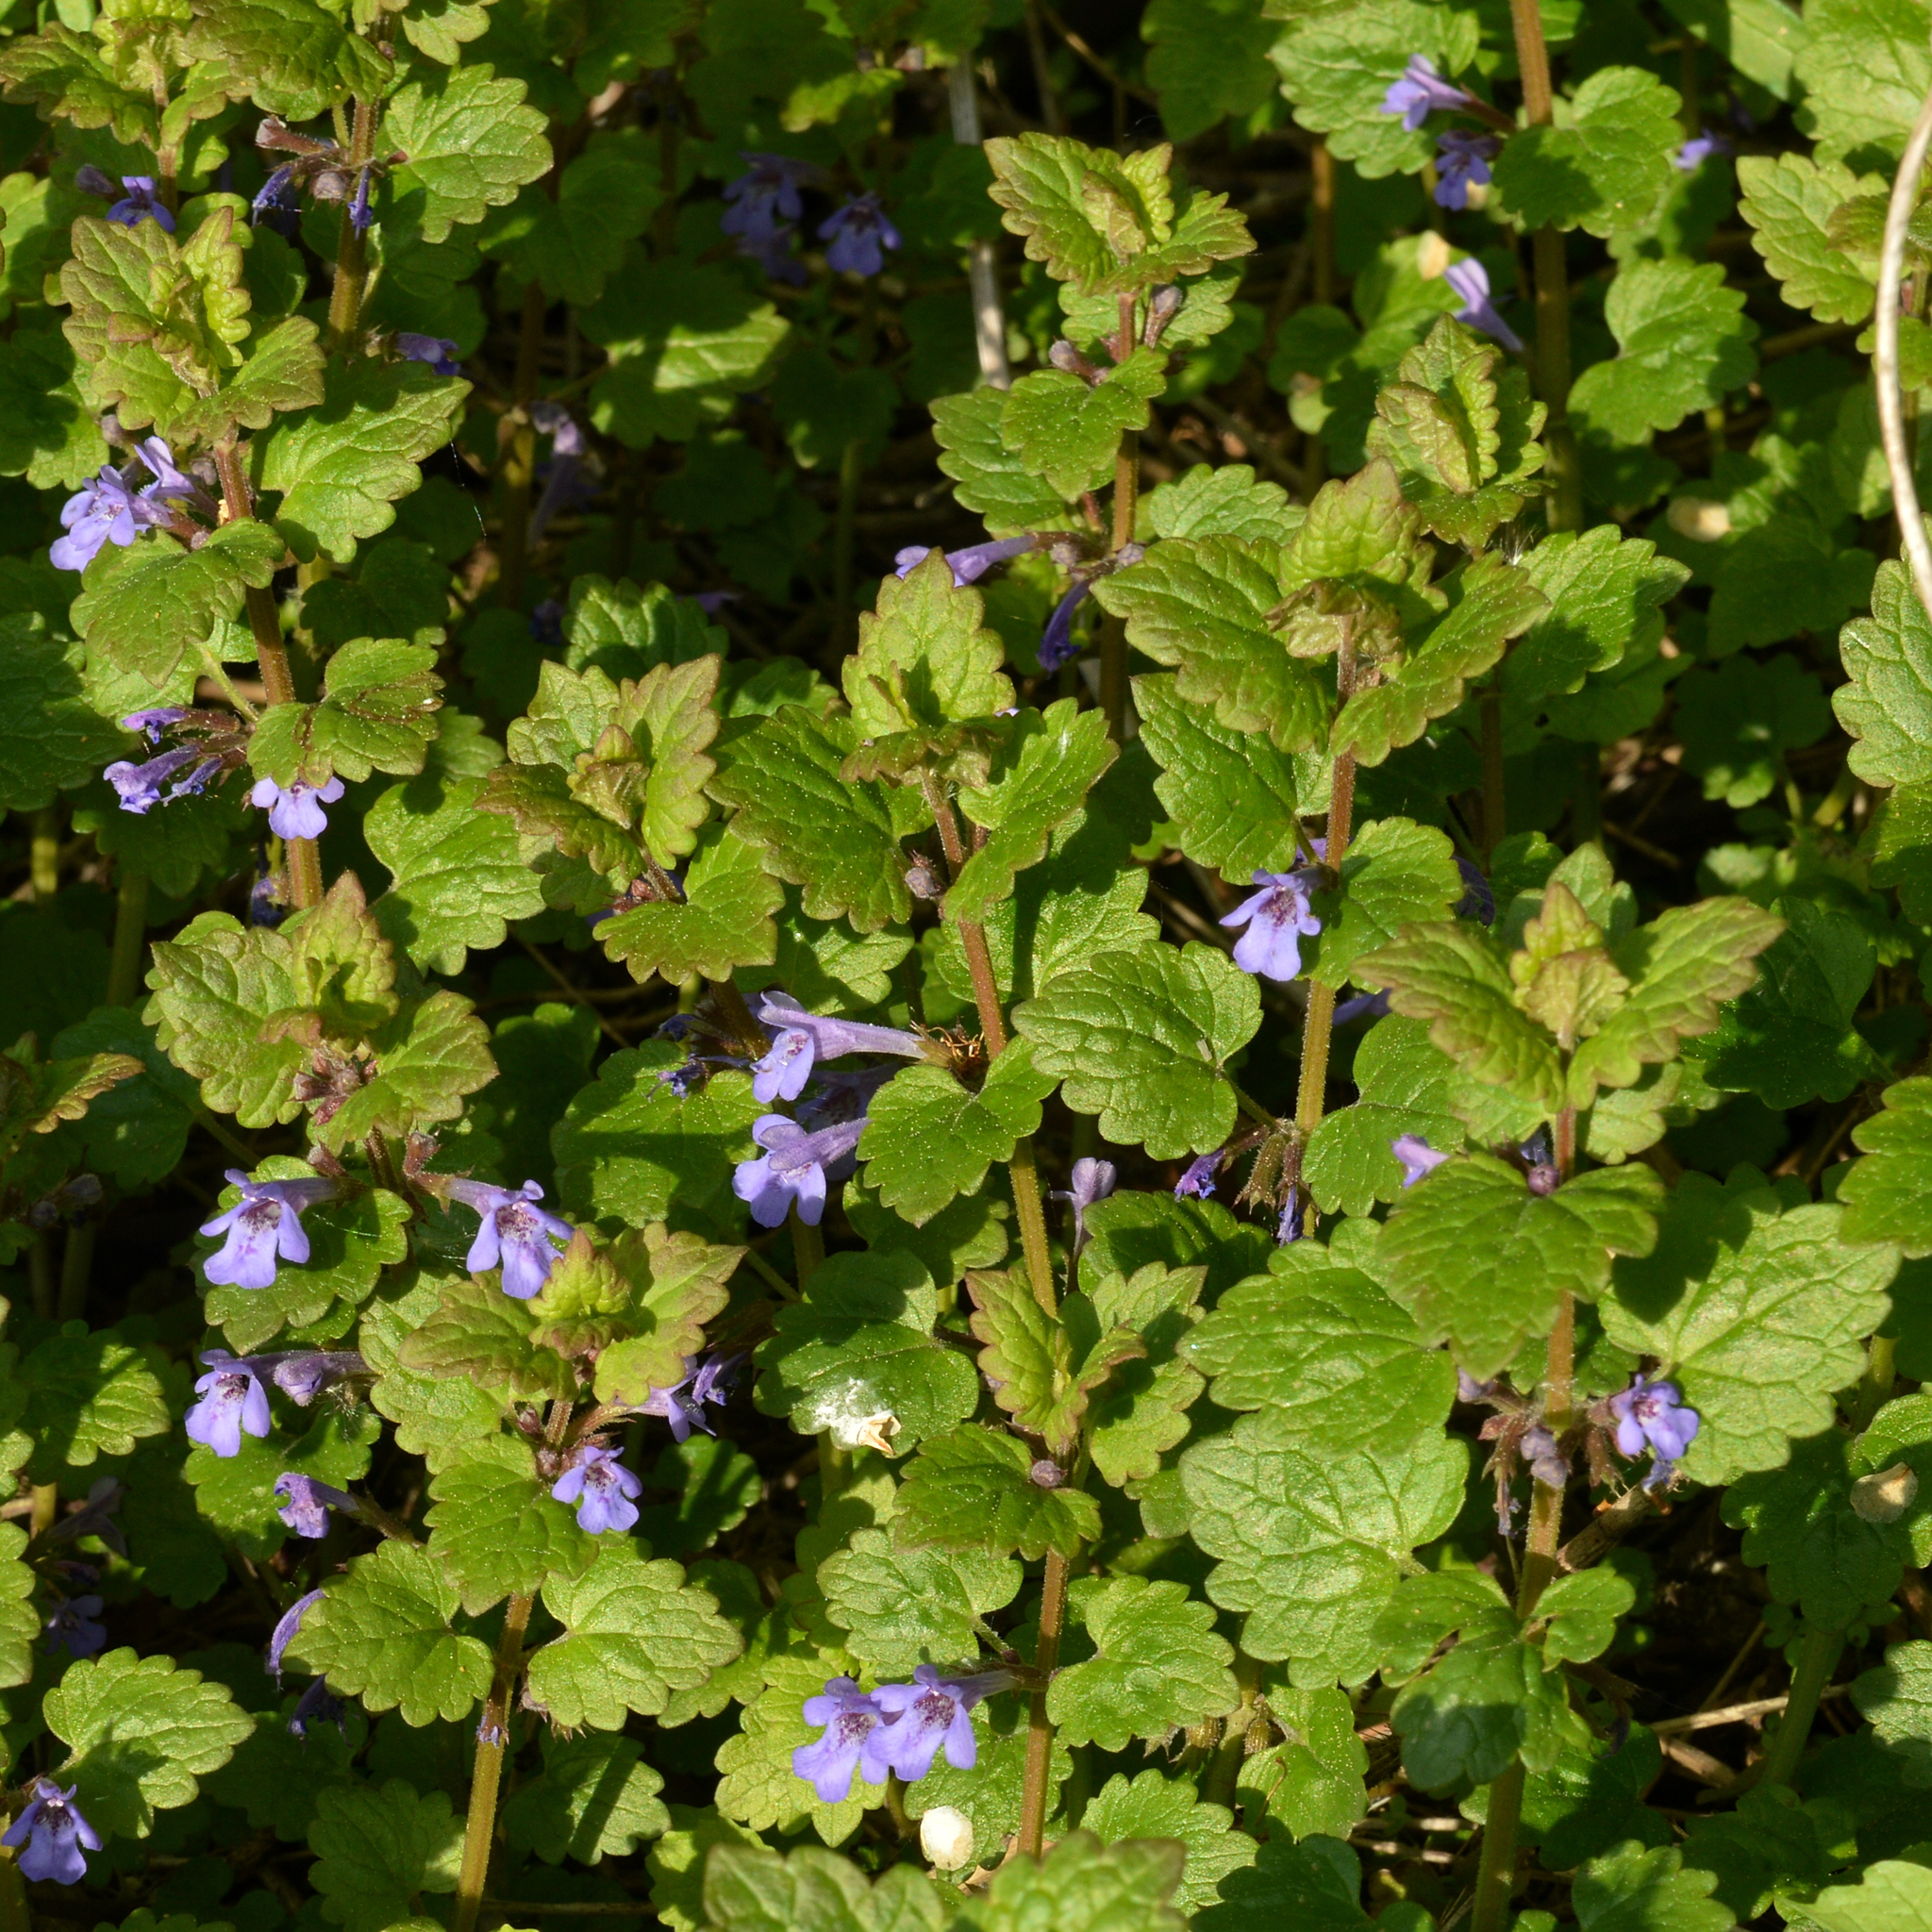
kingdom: Plantae
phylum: Tracheophyta
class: Magnoliopsida
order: Lamiales
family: Lamiaceae
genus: Glechoma
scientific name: Glechoma hederacea
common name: Ground ivy
